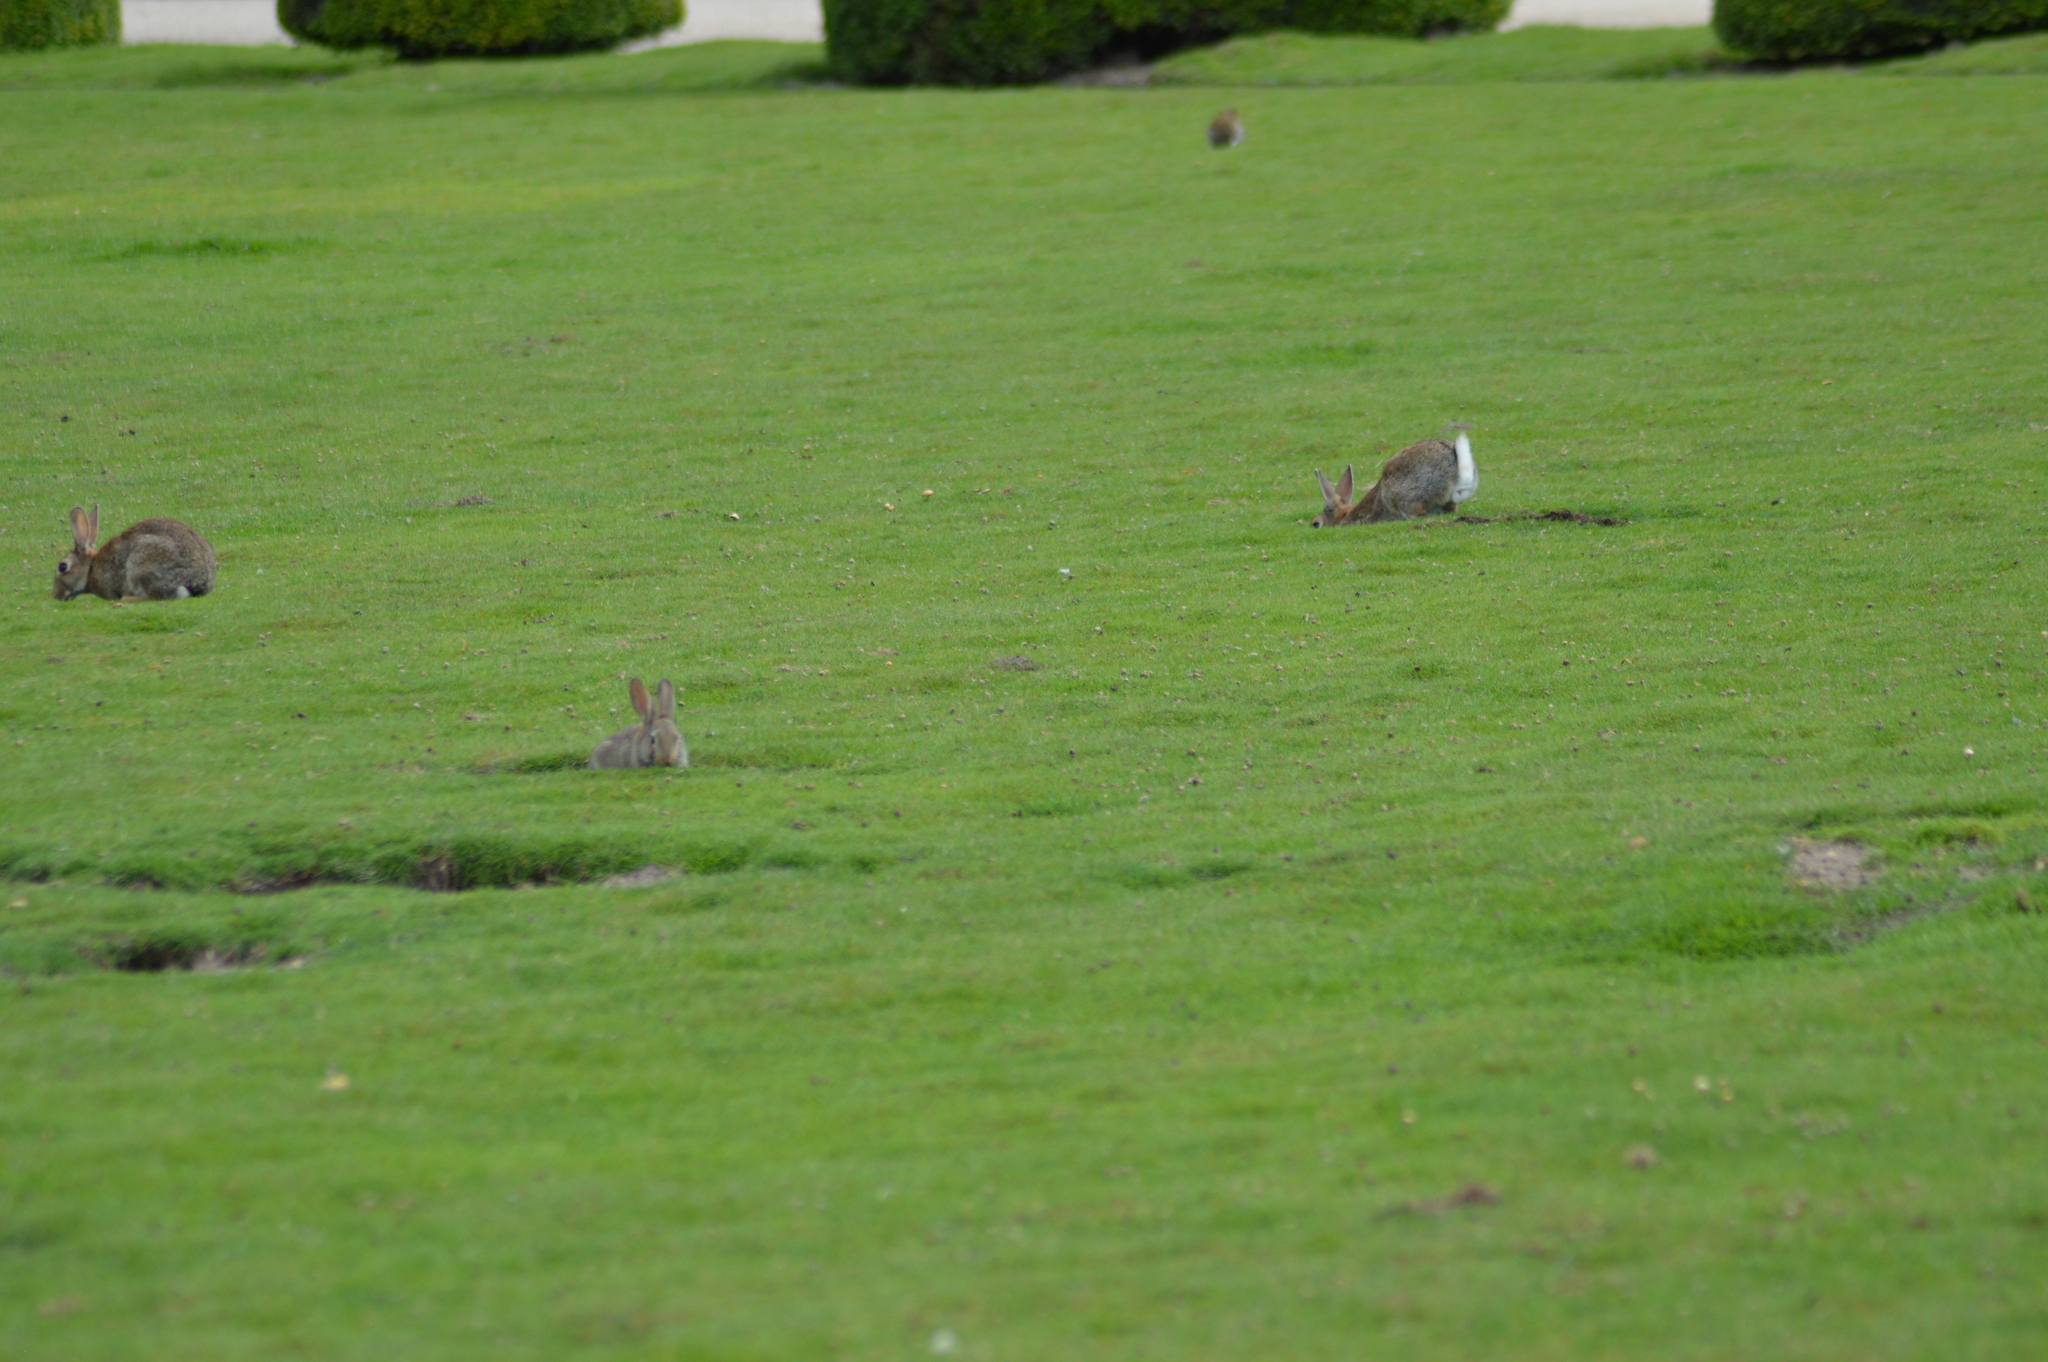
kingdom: Animalia
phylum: Chordata
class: Mammalia
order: Lagomorpha
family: Leporidae
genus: Oryctolagus
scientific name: Oryctolagus cuniculus
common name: European rabbit
